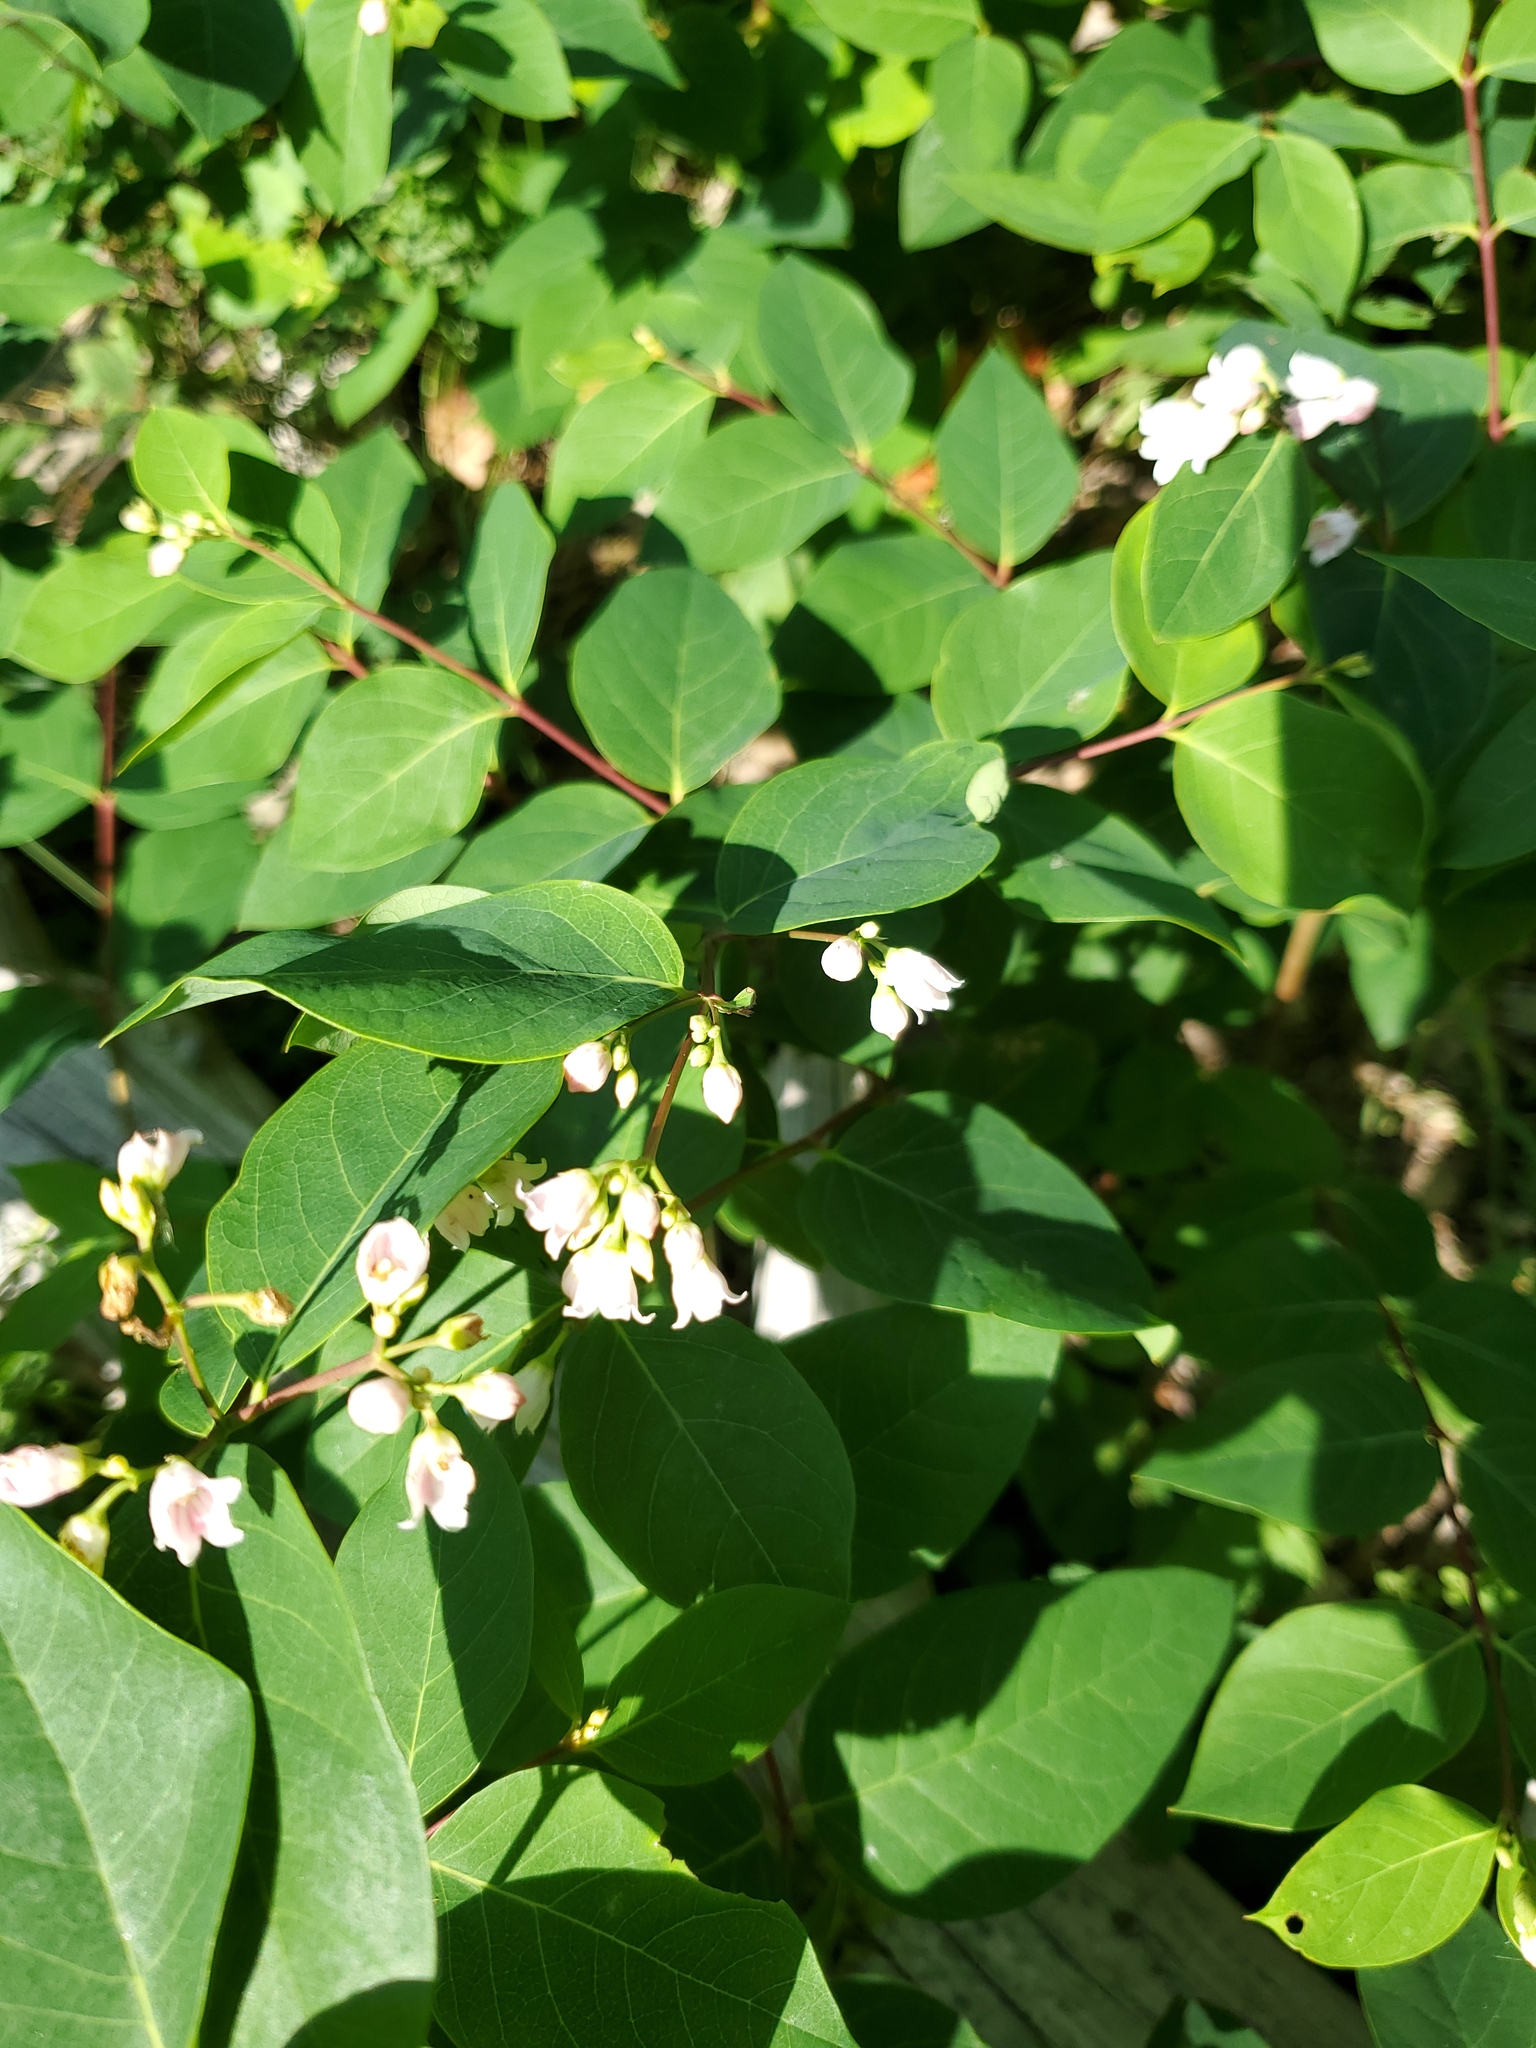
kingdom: Plantae
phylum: Tracheophyta
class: Magnoliopsida
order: Gentianales
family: Apocynaceae
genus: Apocynum
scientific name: Apocynum androsaemifolium
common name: Spreading dogbane
